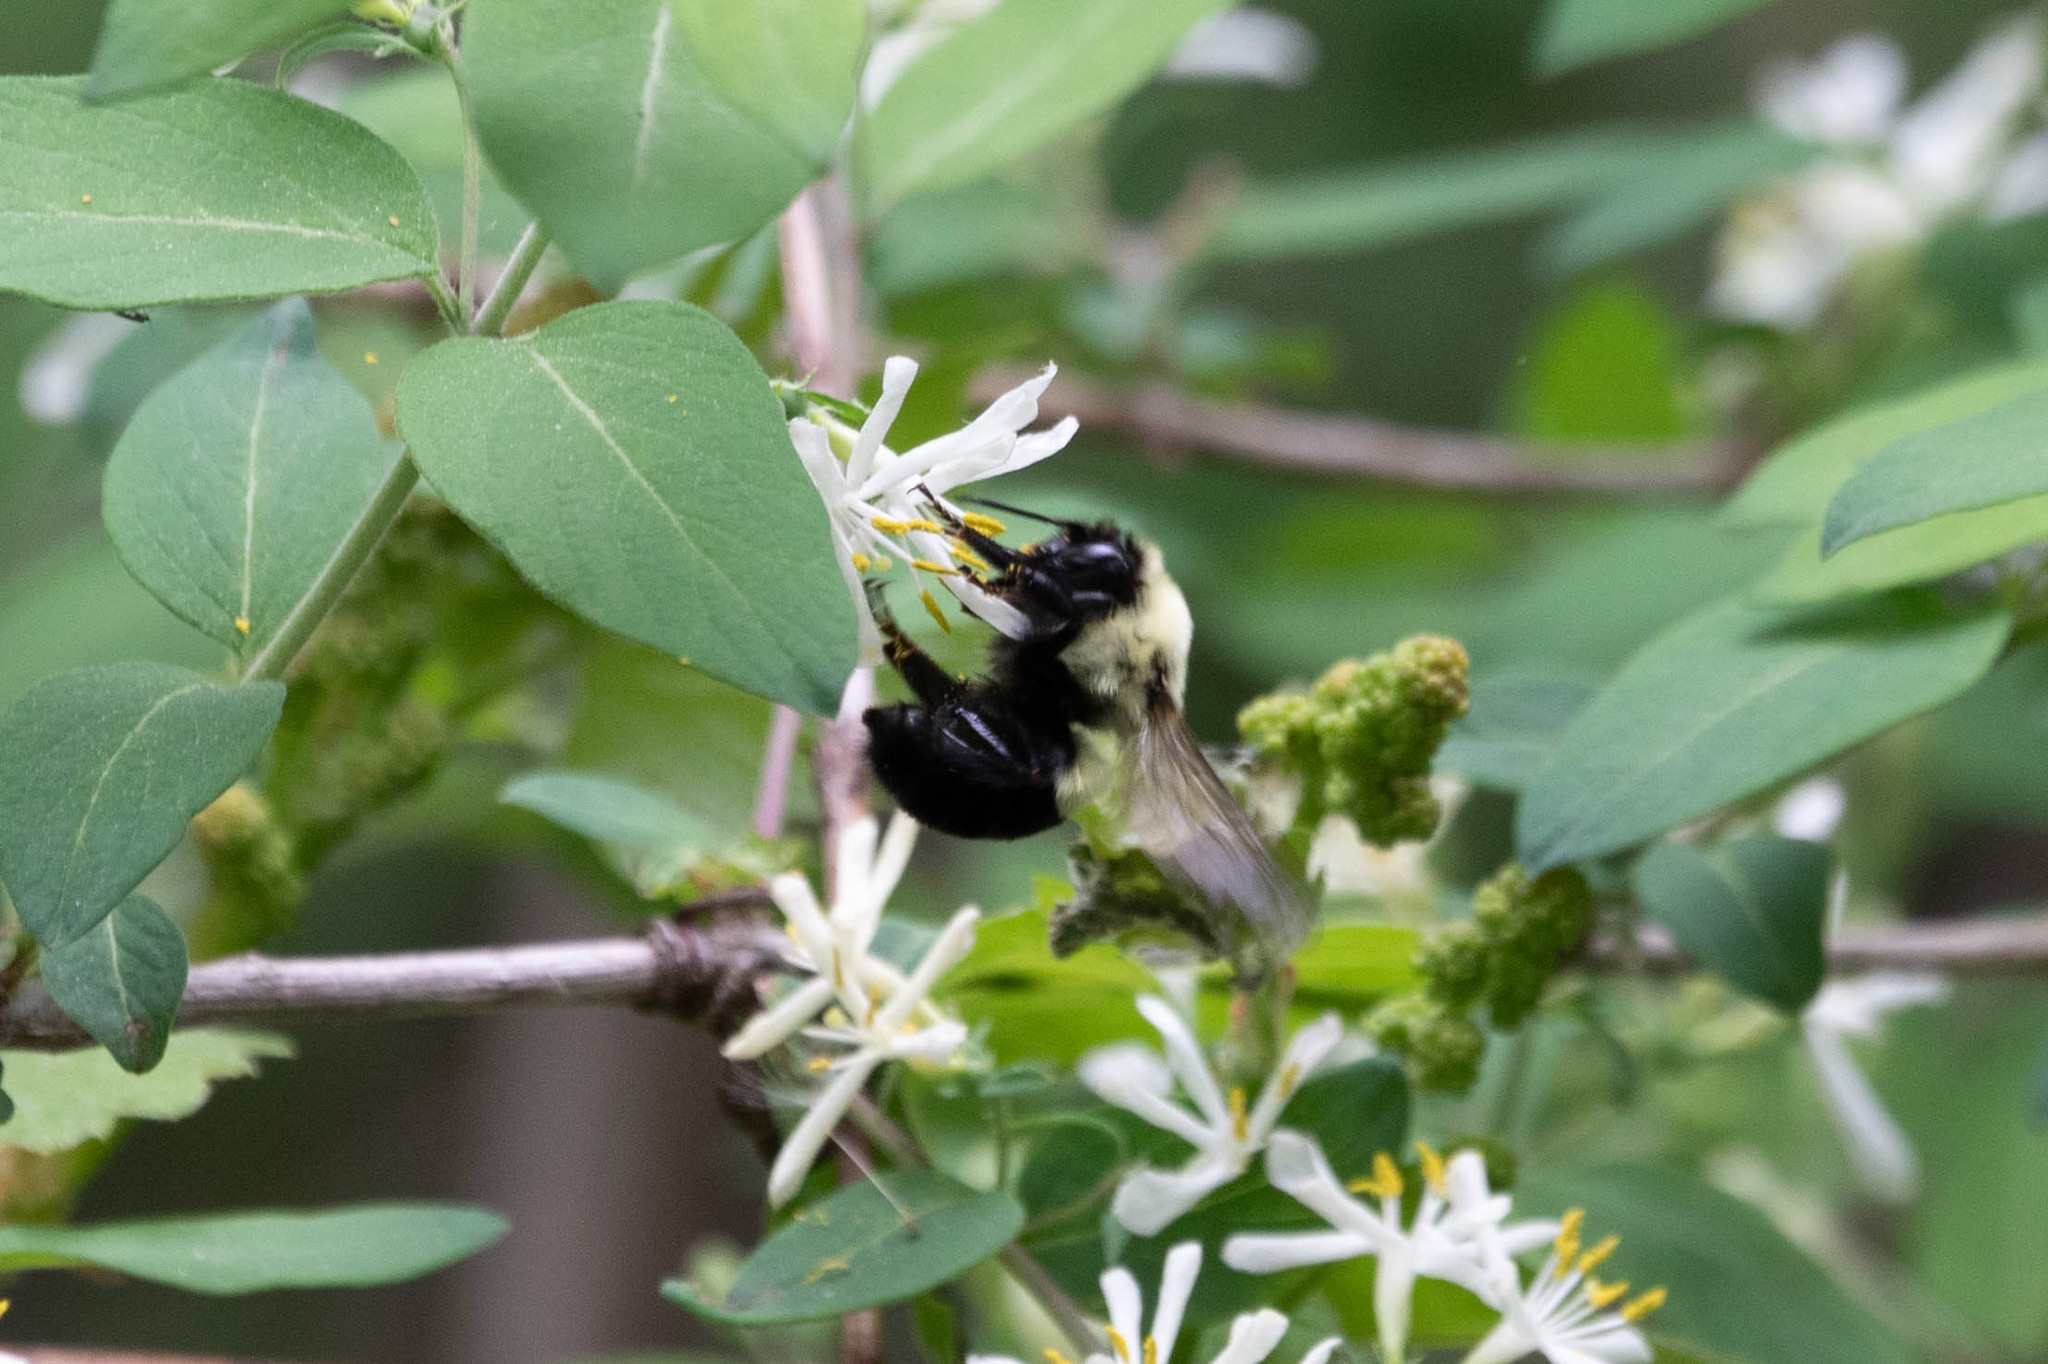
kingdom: Animalia
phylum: Arthropoda
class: Insecta
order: Hymenoptera
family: Apidae
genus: Bombus
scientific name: Bombus impatiens
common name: Common eastern bumble bee
